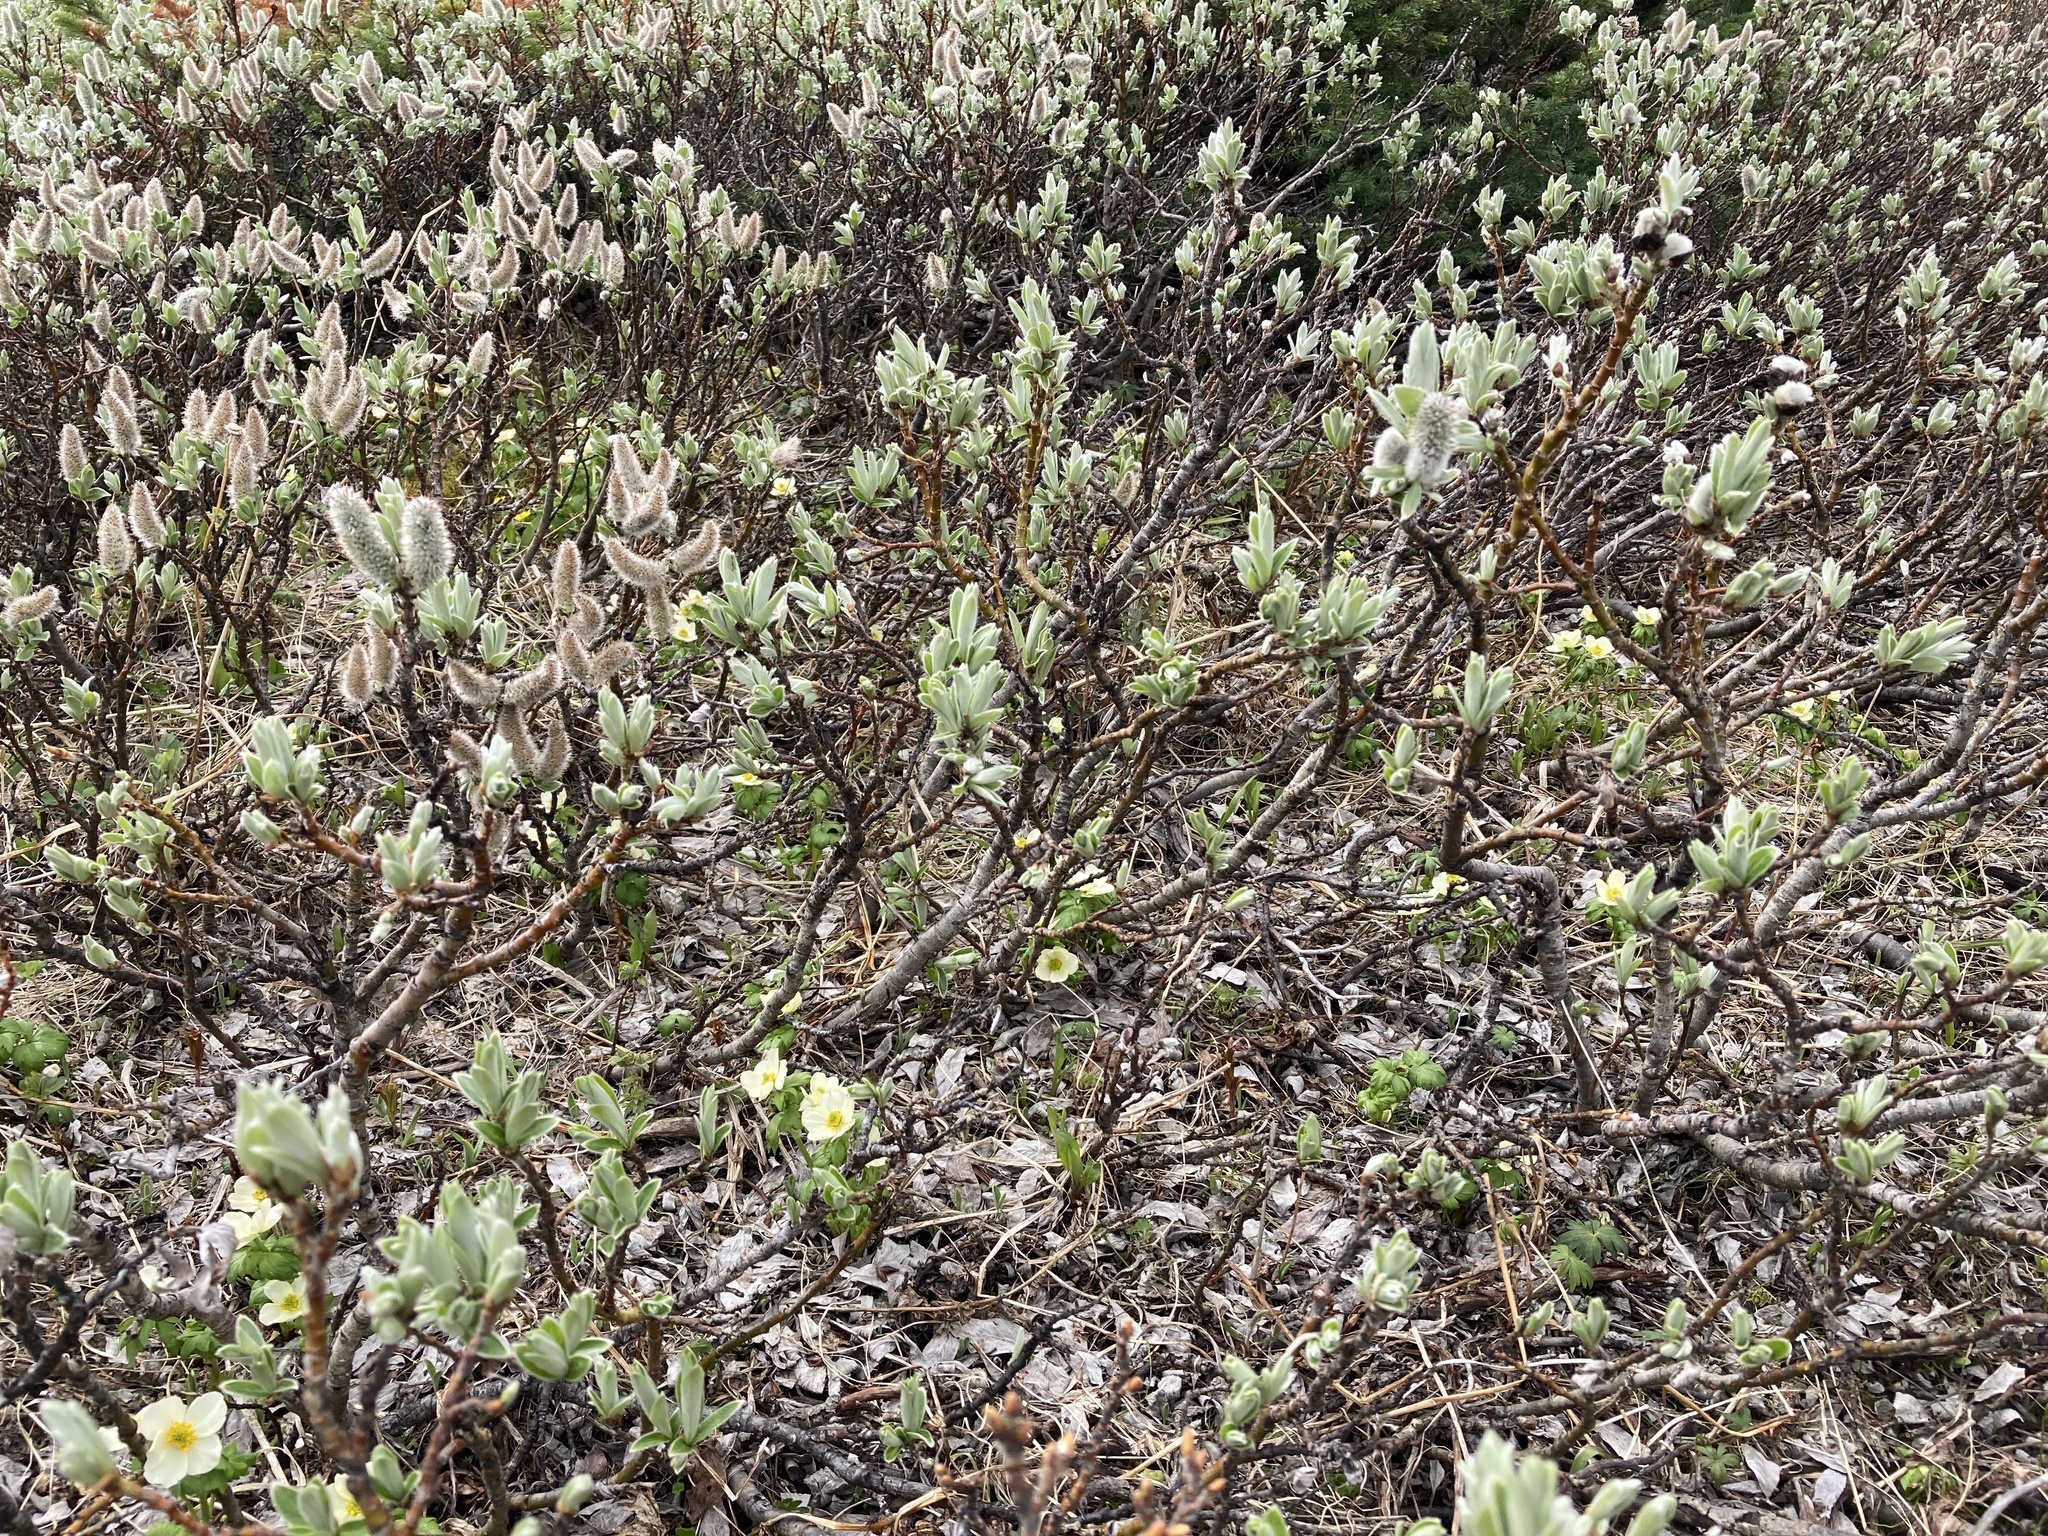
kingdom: Plantae
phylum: Tracheophyta
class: Magnoliopsida
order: Ranunculales
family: Ranunculaceae
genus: Trollius
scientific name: Trollius laxus
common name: American globeflower
